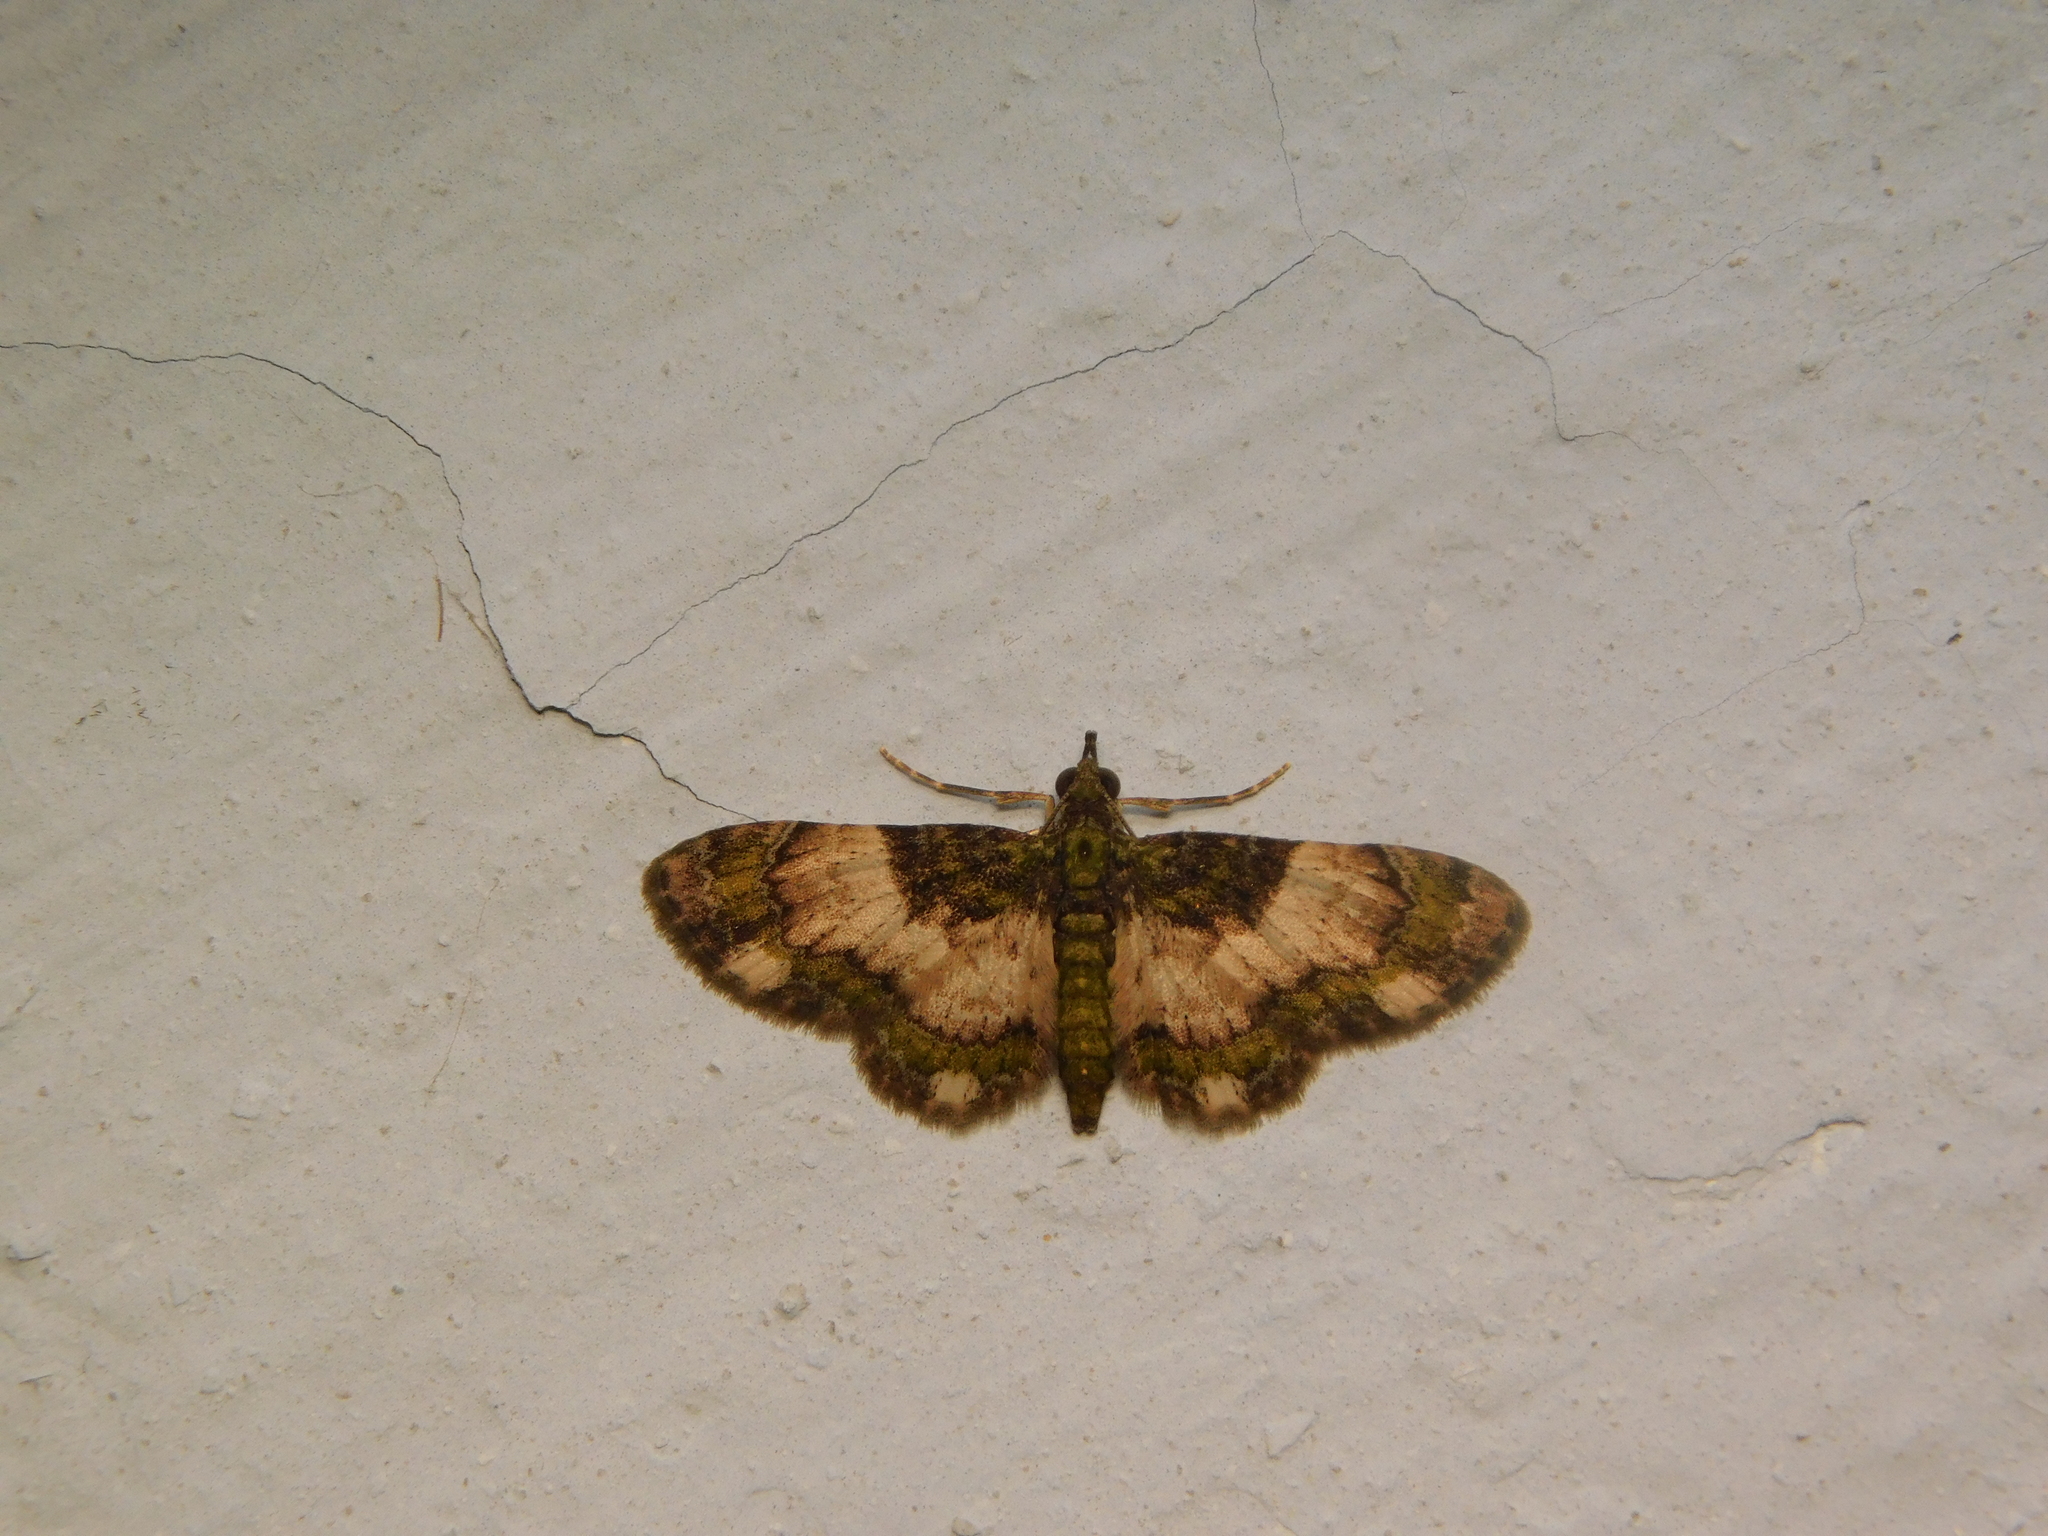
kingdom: Animalia
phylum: Arthropoda
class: Insecta
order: Lepidoptera
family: Geometridae
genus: Gymnoscelis
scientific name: Gymnoscelis roseifascia
